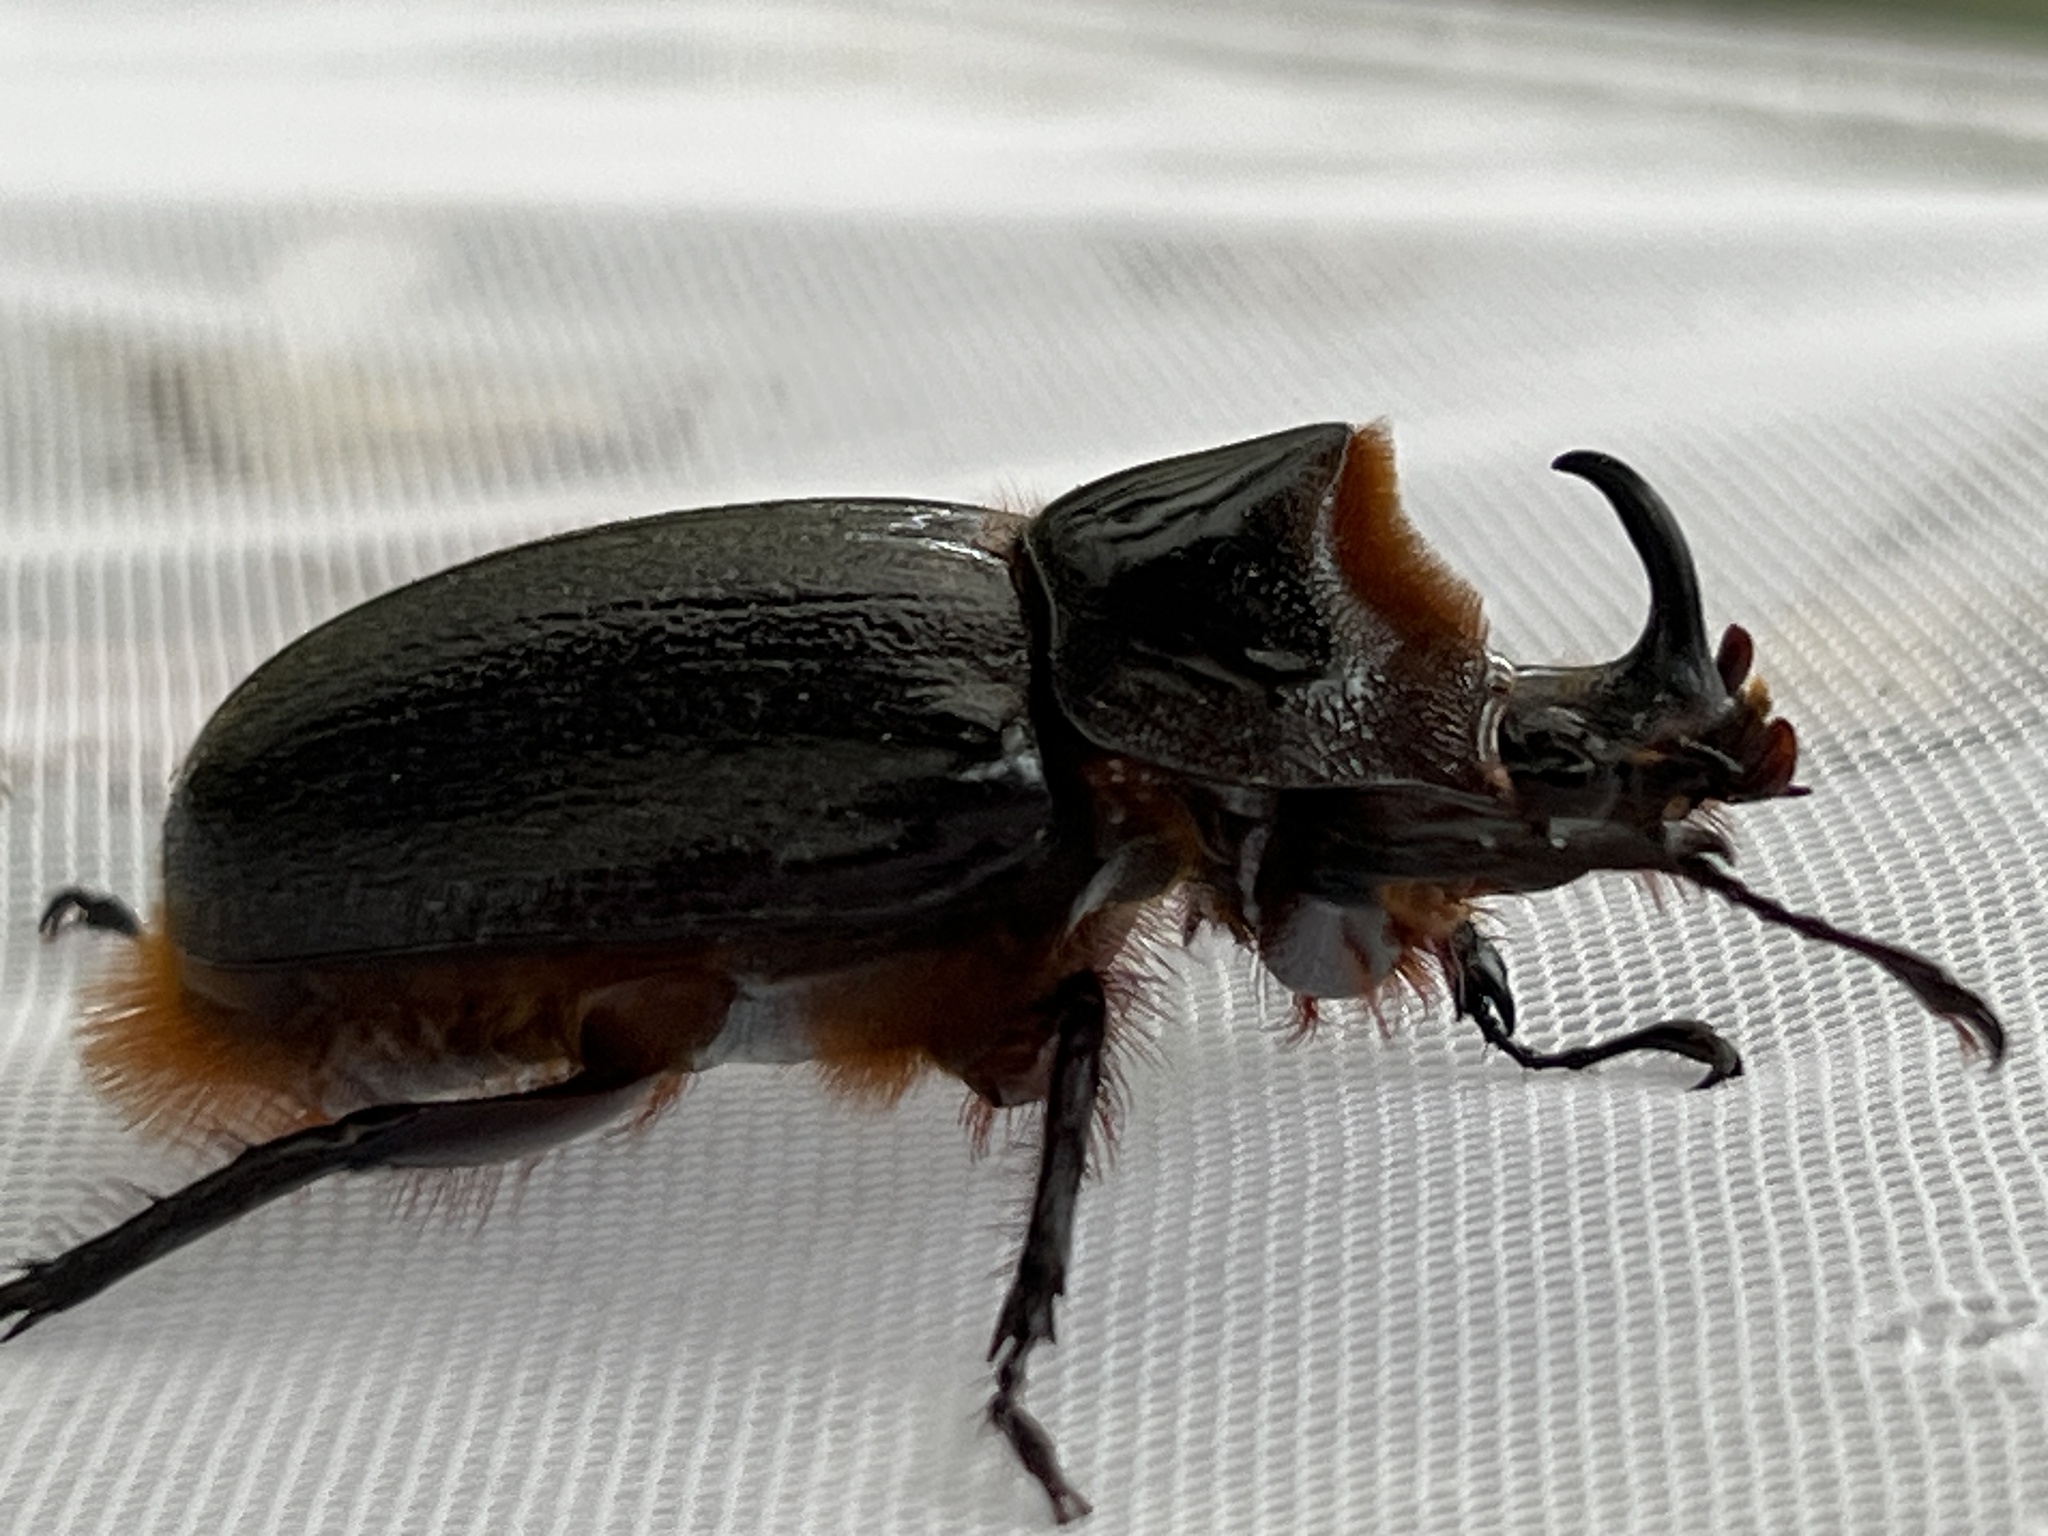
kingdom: Animalia
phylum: Arthropoda
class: Insecta
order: Coleoptera
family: Scarabaeidae
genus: Heterogomphus
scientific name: Heterogomphus schoenherri
